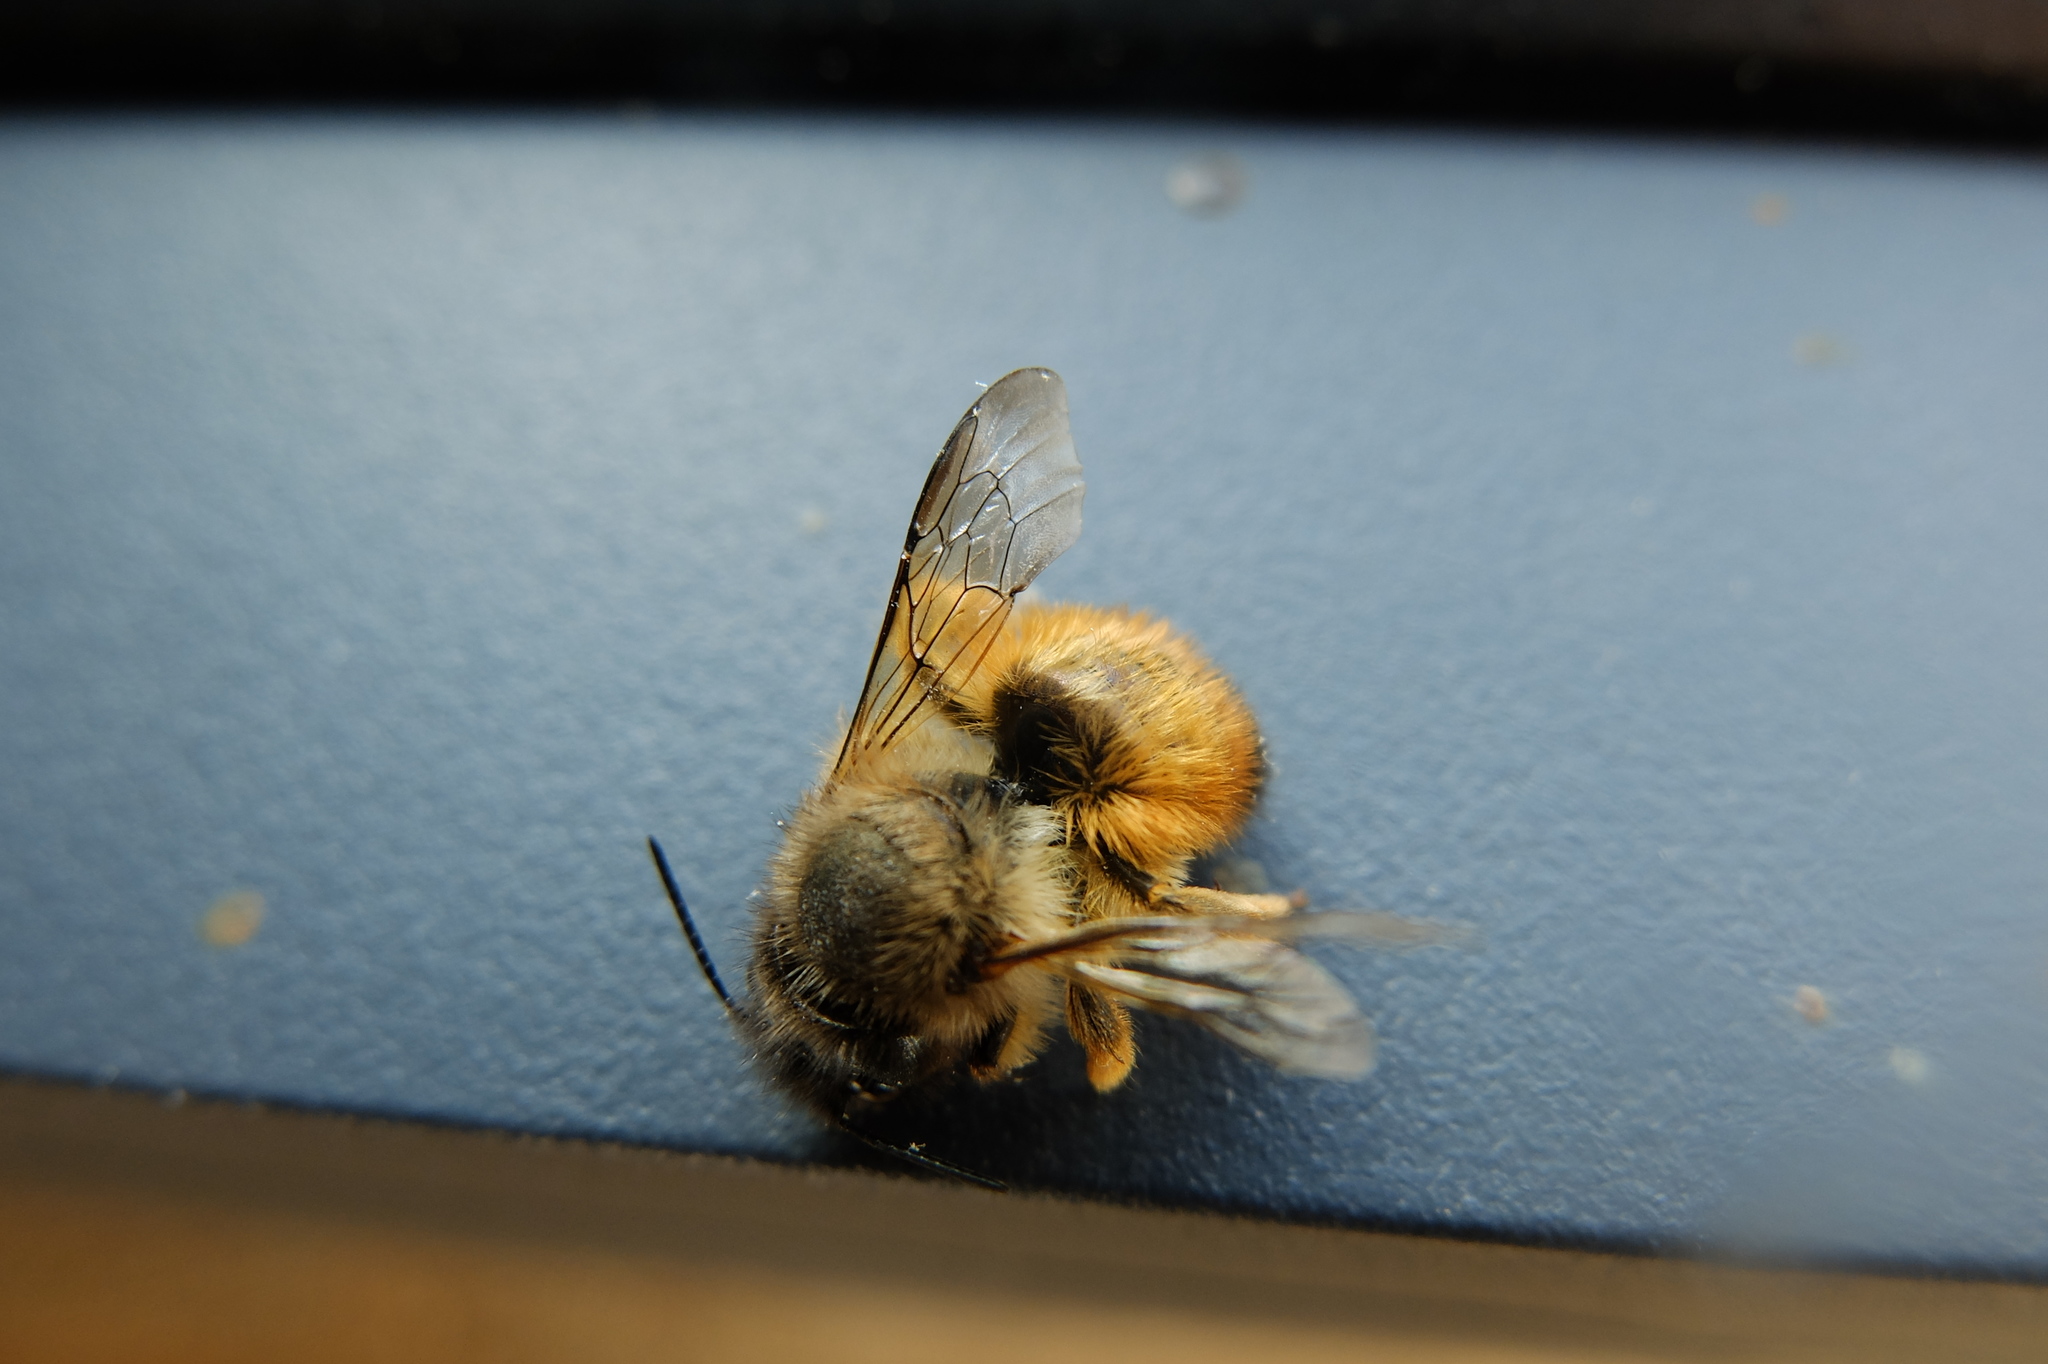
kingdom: Animalia
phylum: Arthropoda
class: Insecta
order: Hymenoptera
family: Megachilidae
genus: Osmia
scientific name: Osmia bicornis
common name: Red mason bee
